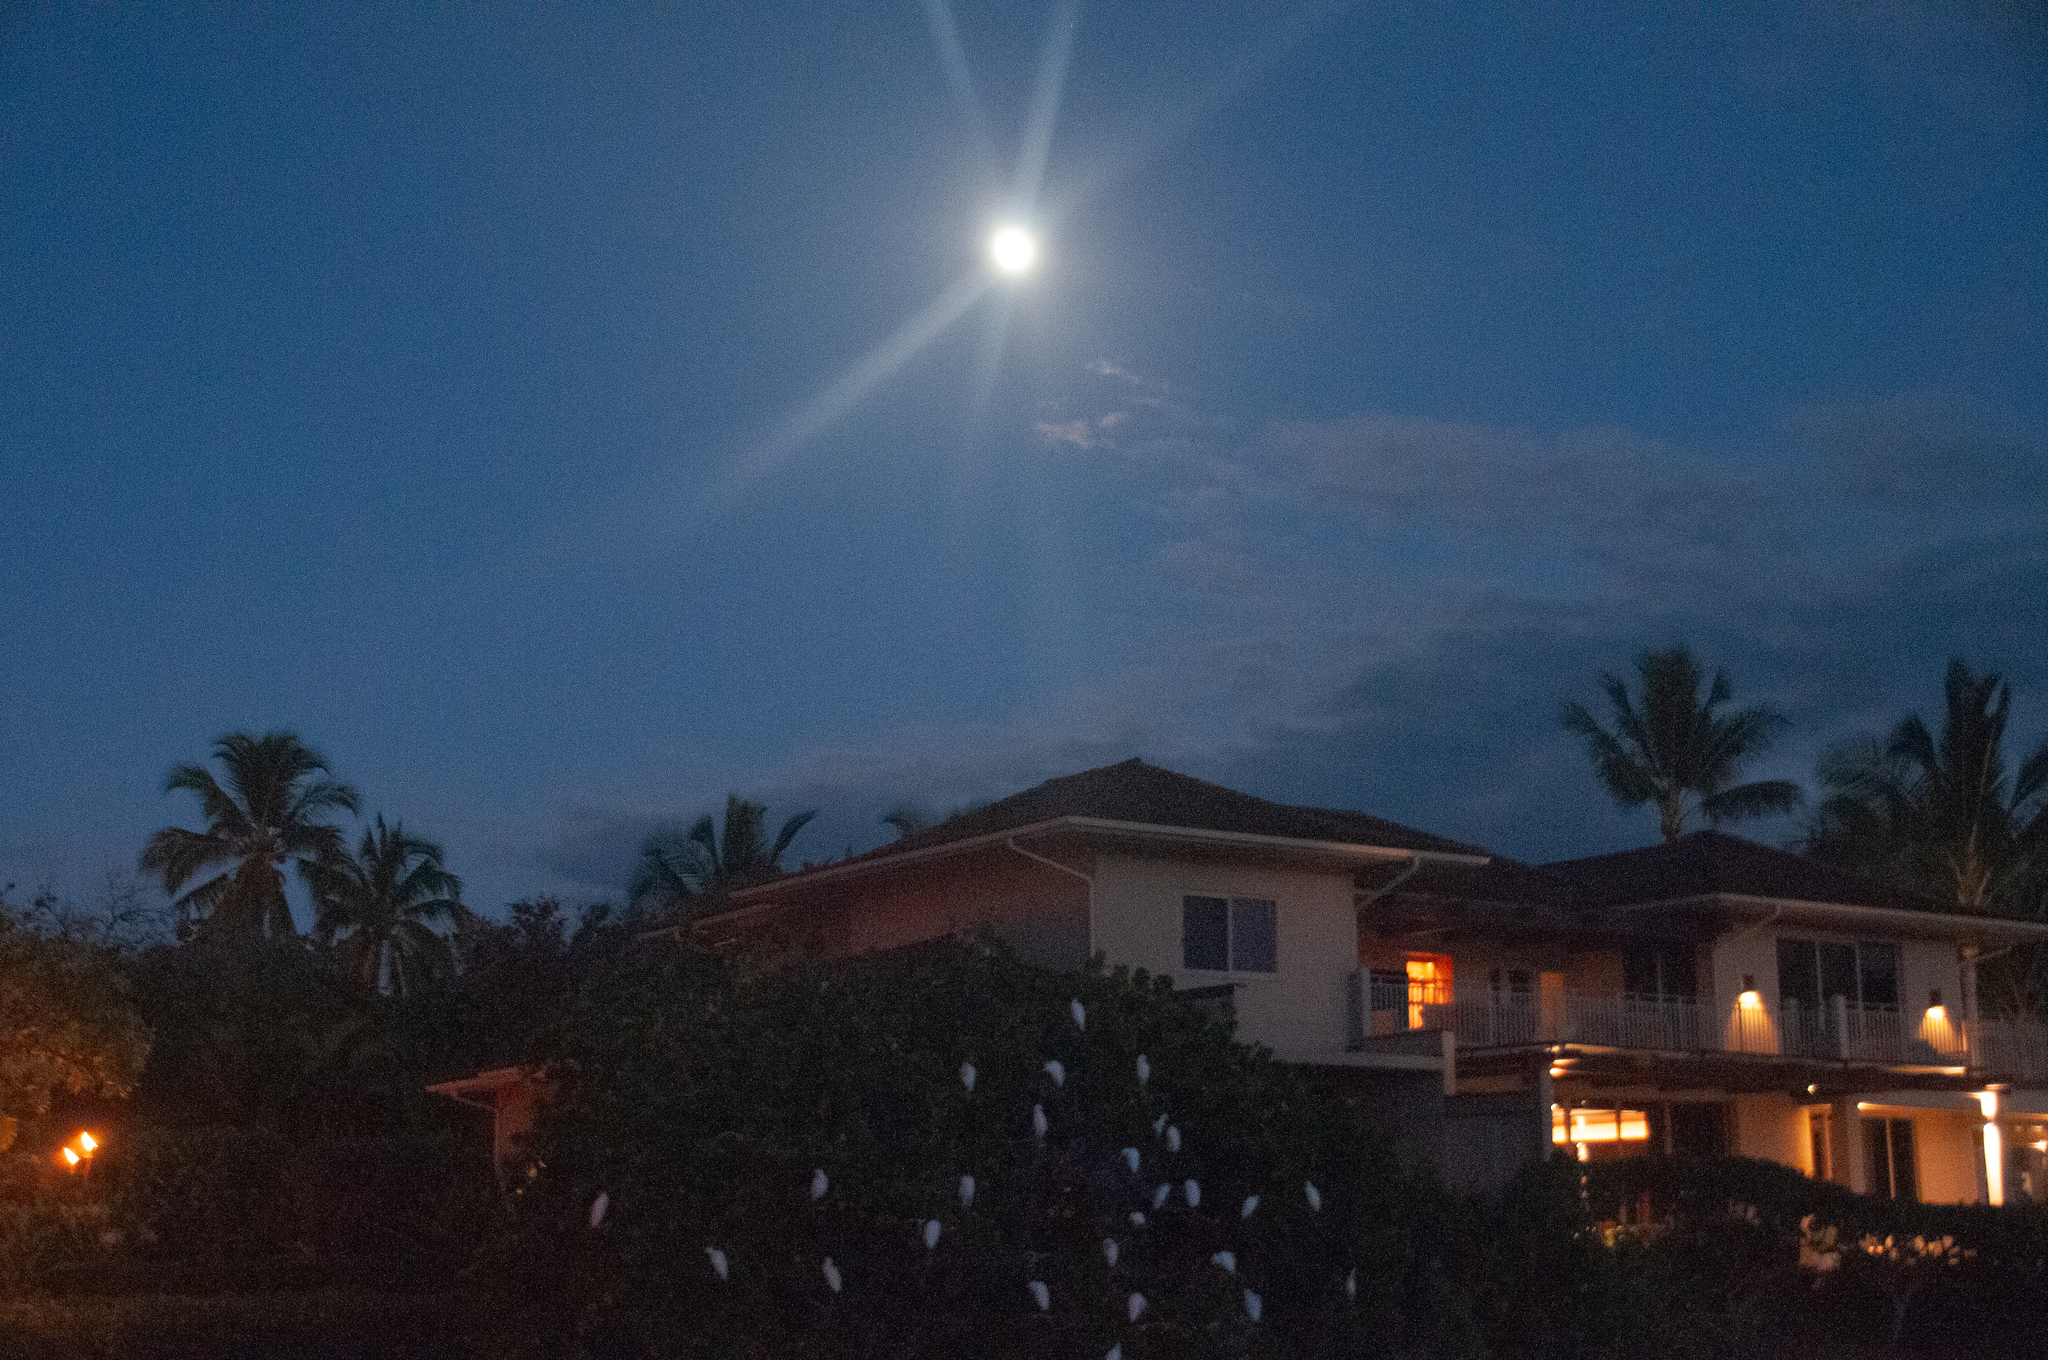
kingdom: Animalia
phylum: Chordata
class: Aves
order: Pelecaniformes
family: Ardeidae
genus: Bubulcus
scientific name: Bubulcus ibis
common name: Cattle egret
